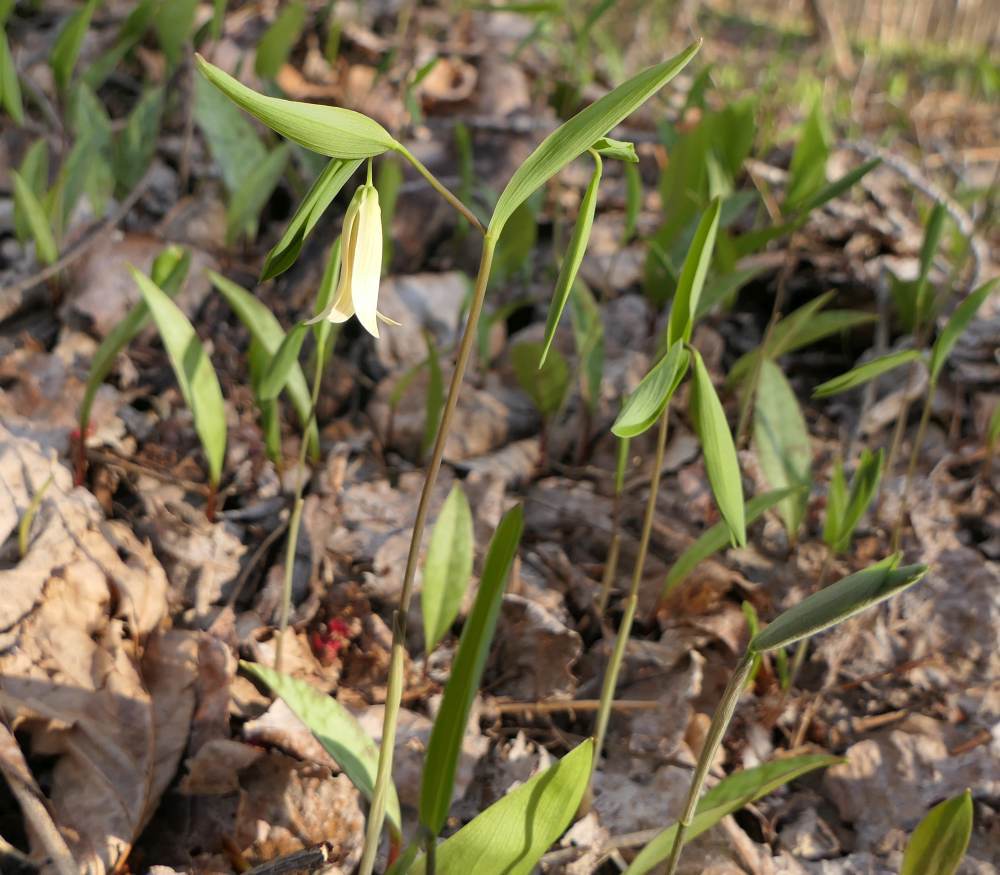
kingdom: Plantae
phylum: Tracheophyta
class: Liliopsida
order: Liliales
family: Colchicaceae
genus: Uvularia
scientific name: Uvularia sessilifolia
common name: Straw-lily
